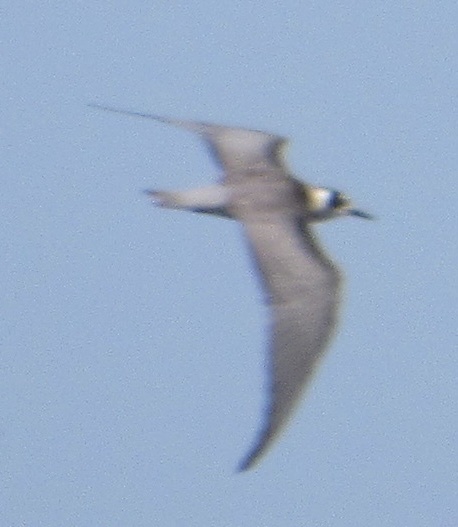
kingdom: Animalia
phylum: Chordata
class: Aves
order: Charadriiformes
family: Laridae
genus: Chlidonias
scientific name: Chlidonias niger
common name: Black tern
